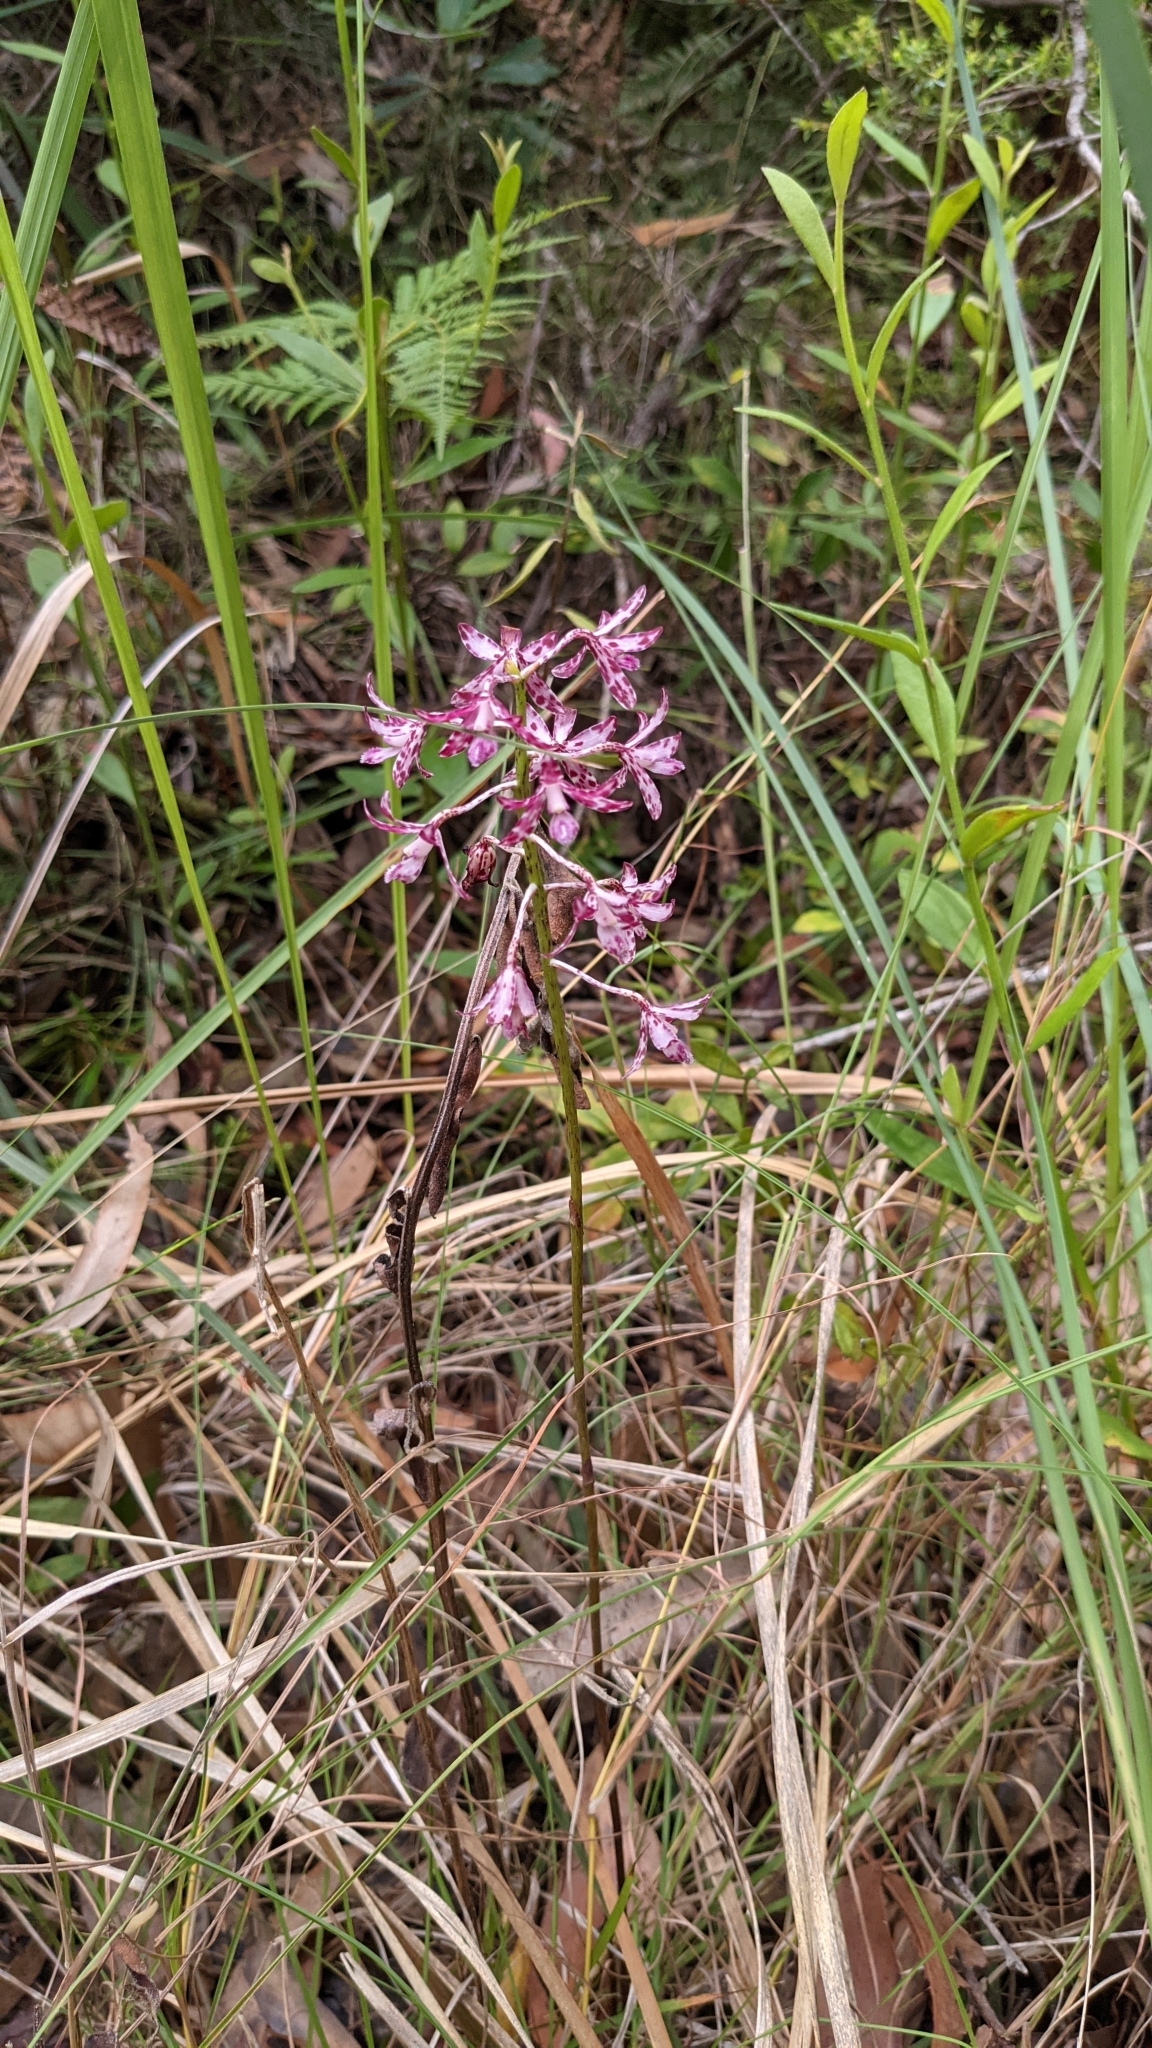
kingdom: Plantae
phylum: Tracheophyta
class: Liliopsida
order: Asparagales
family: Orchidaceae
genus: Dipodium
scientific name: Dipodium variegatum
